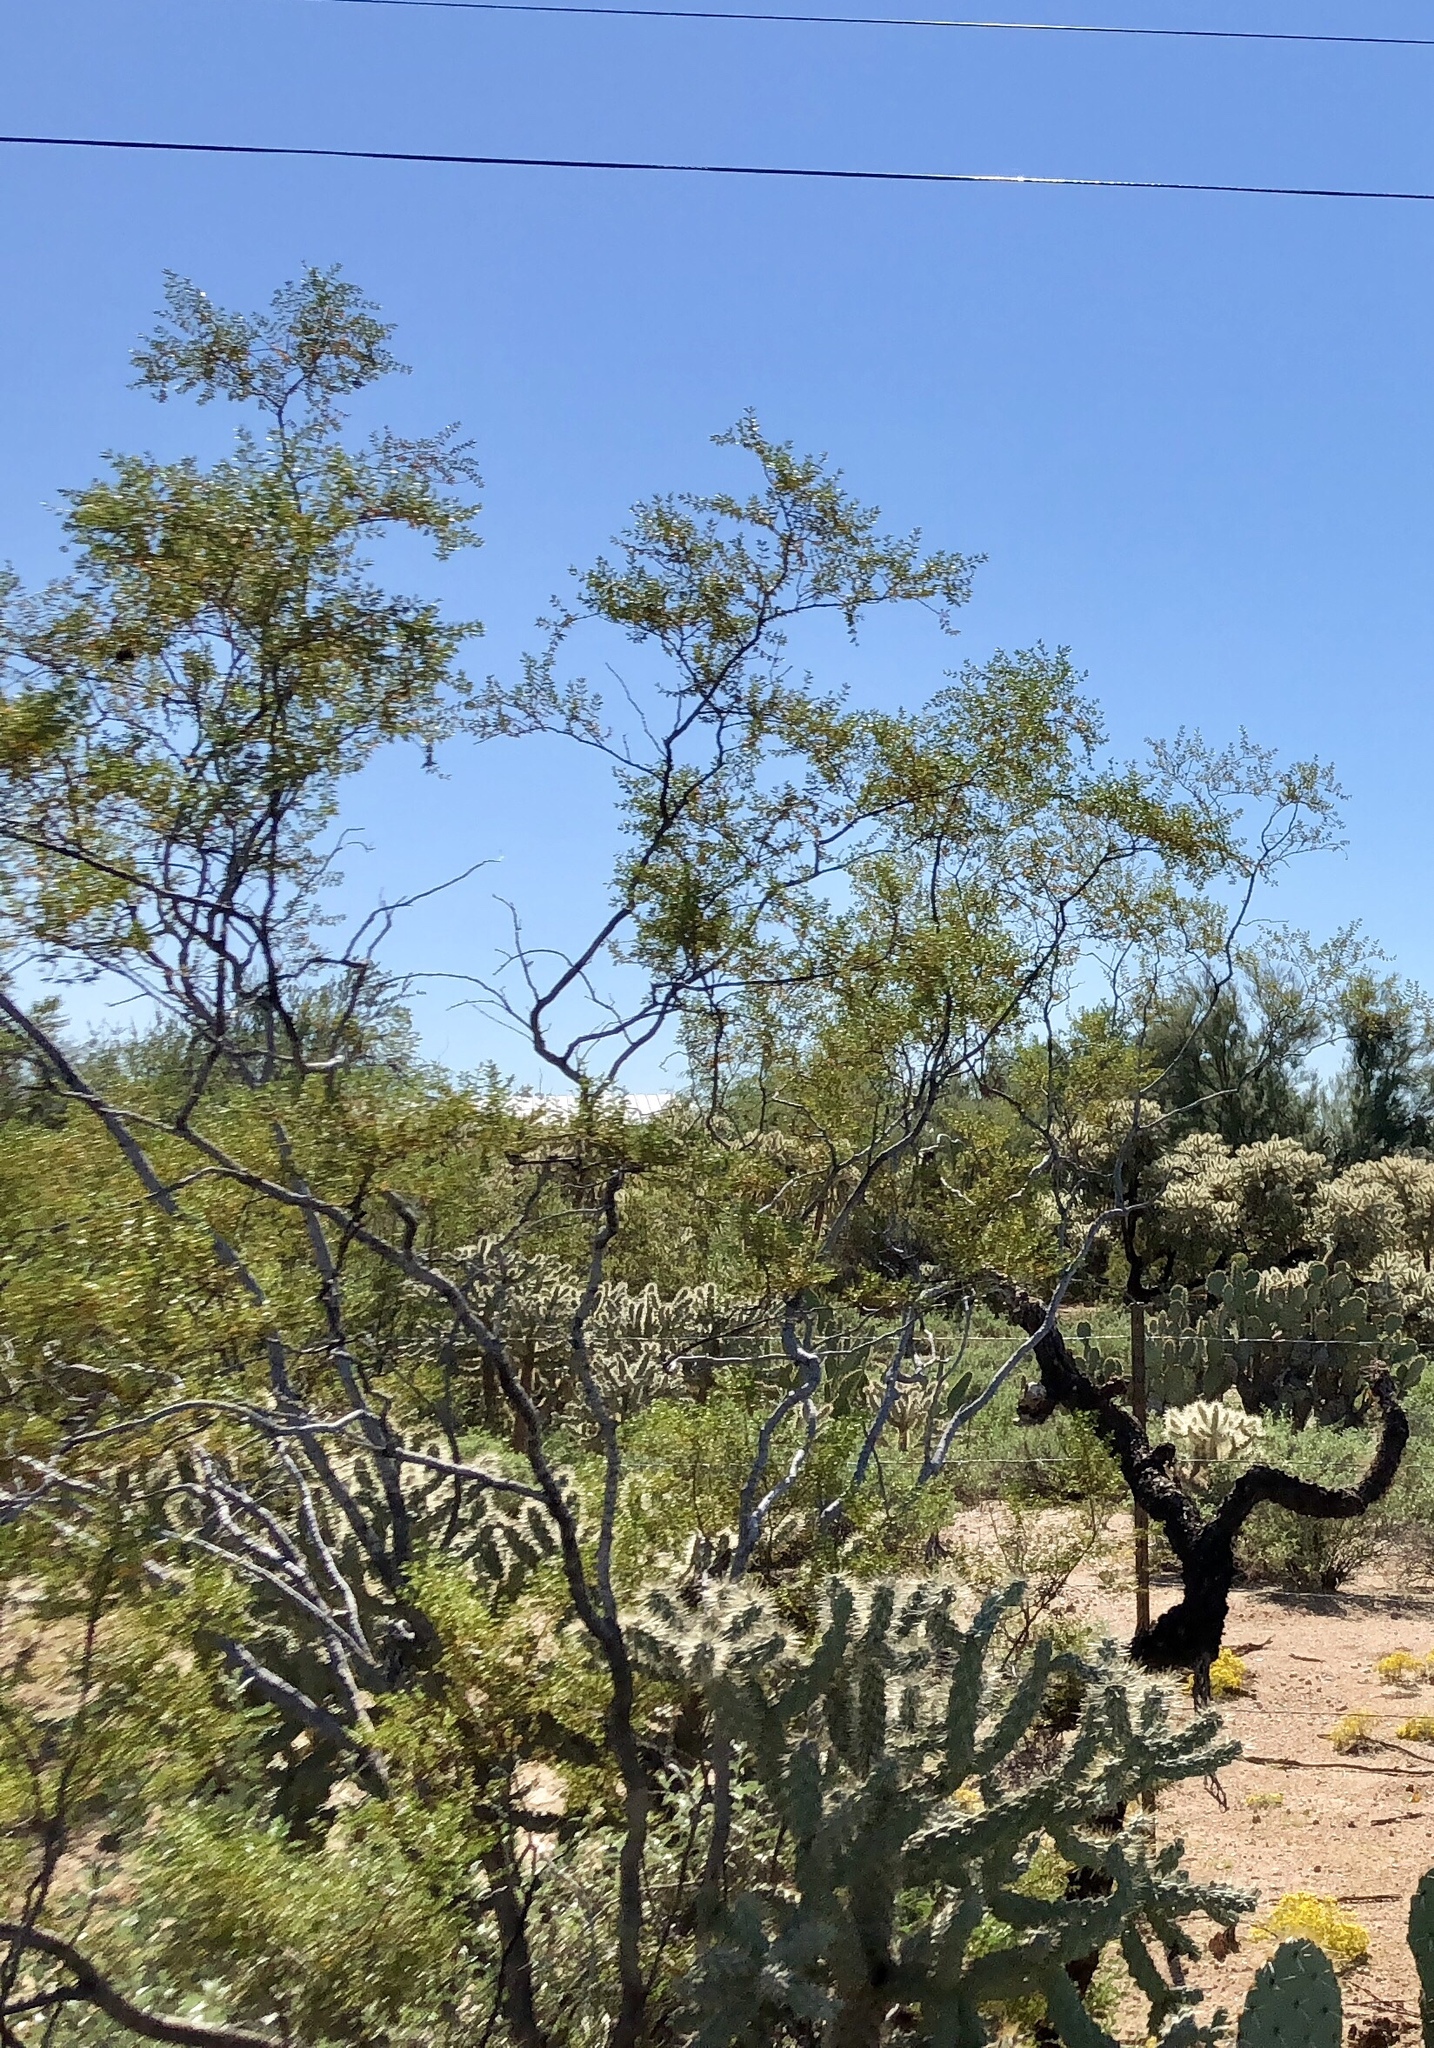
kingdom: Plantae
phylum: Tracheophyta
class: Magnoliopsida
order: Zygophyllales
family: Zygophyllaceae
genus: Larrea
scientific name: Larrea tridentata
